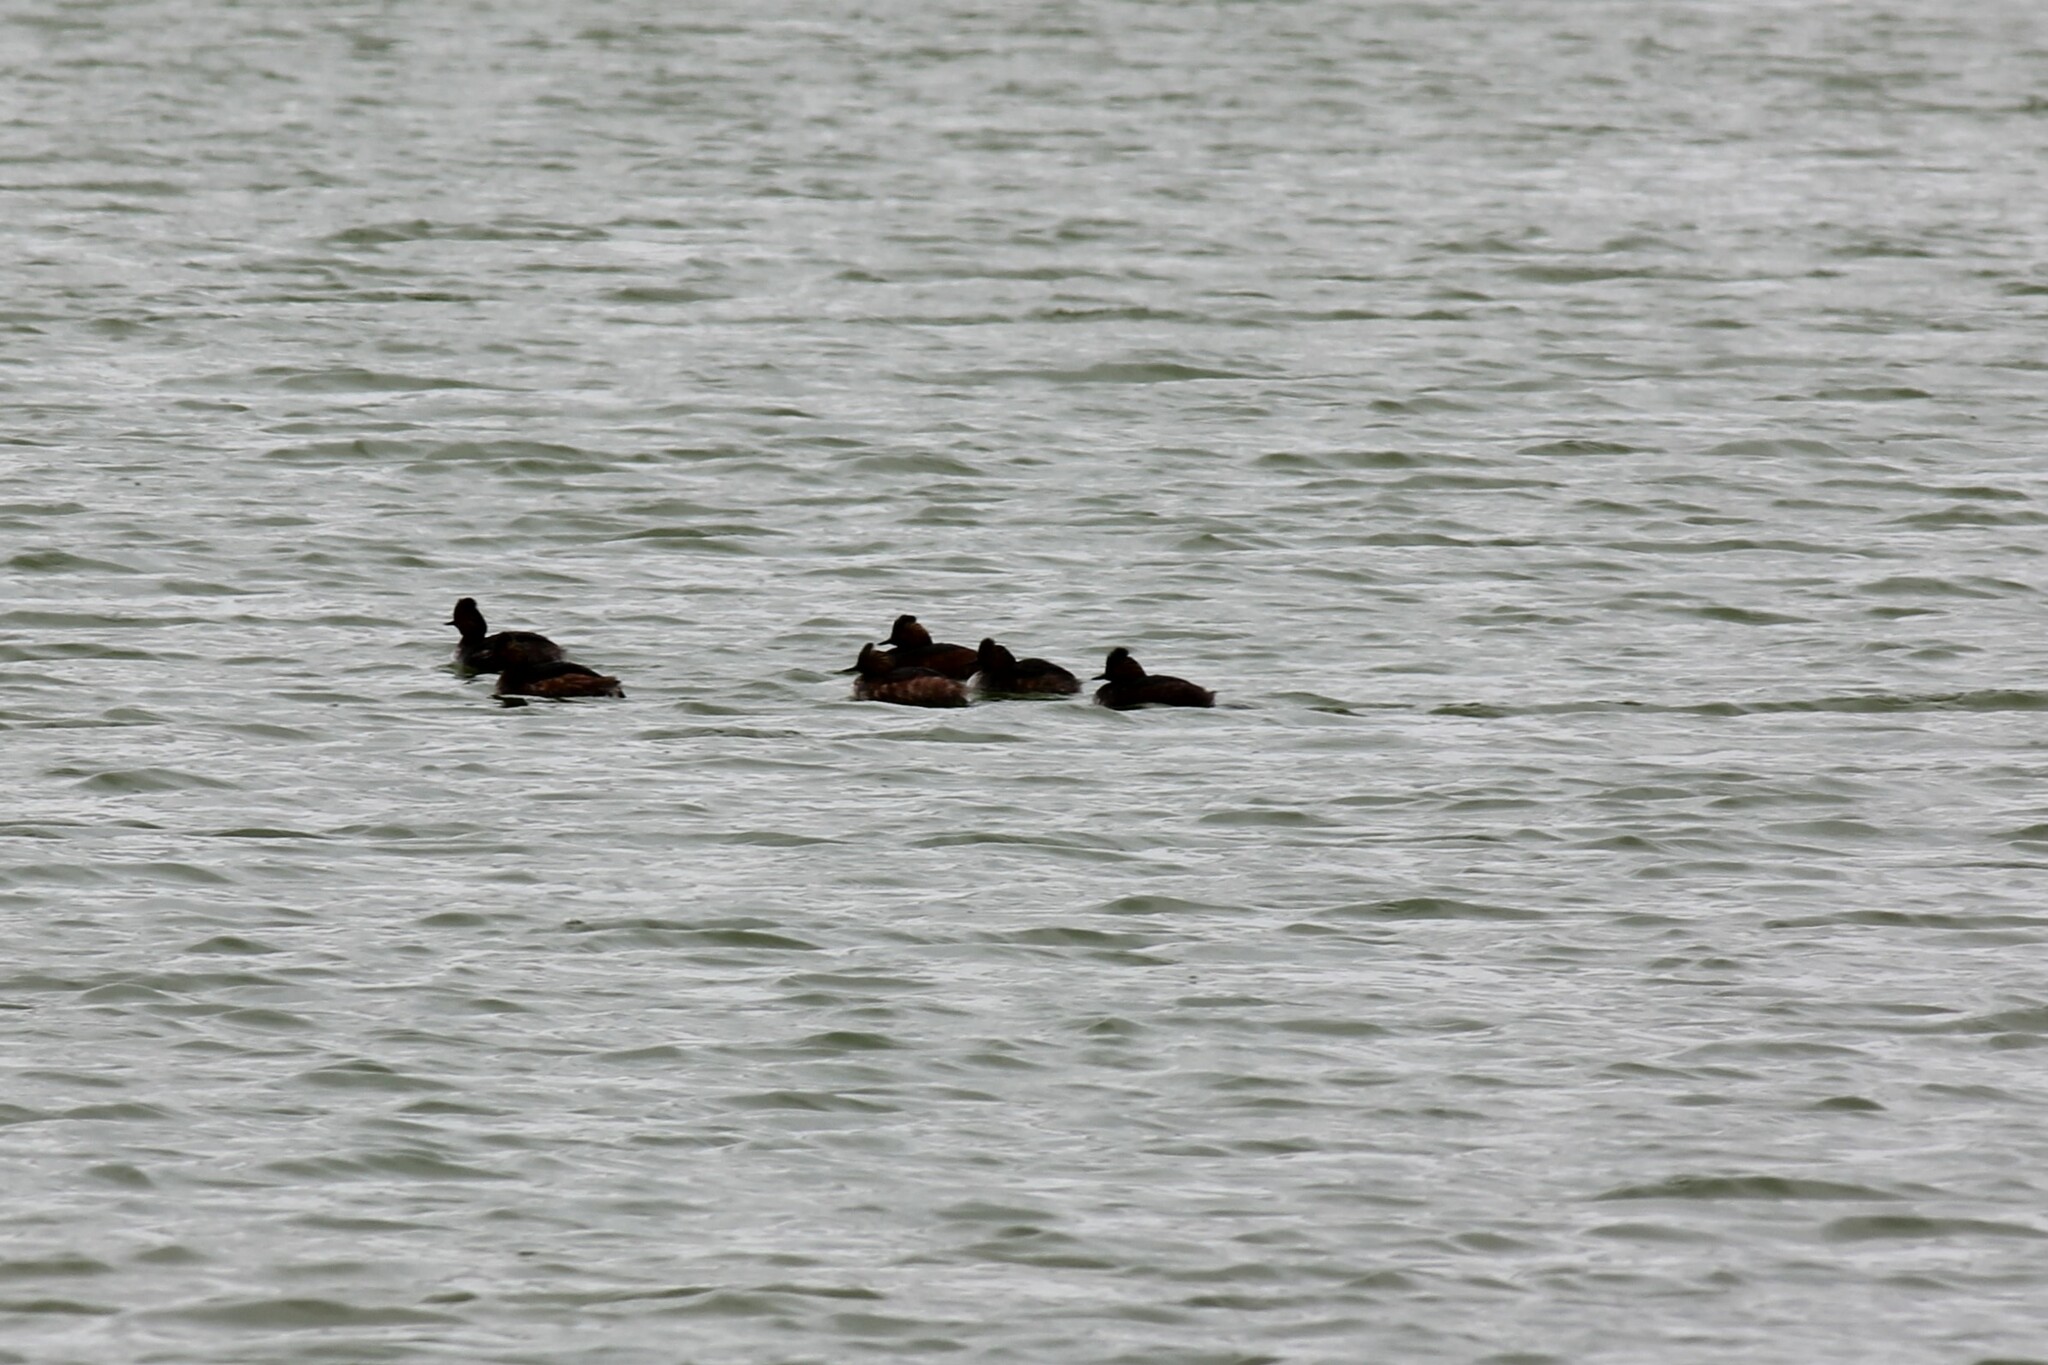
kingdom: Animalia
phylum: Chordata
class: Aves
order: Podicipediformes
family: Podicipedidae
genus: Podiceps
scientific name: Podiceps nigricollis
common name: Black-necked grebe
